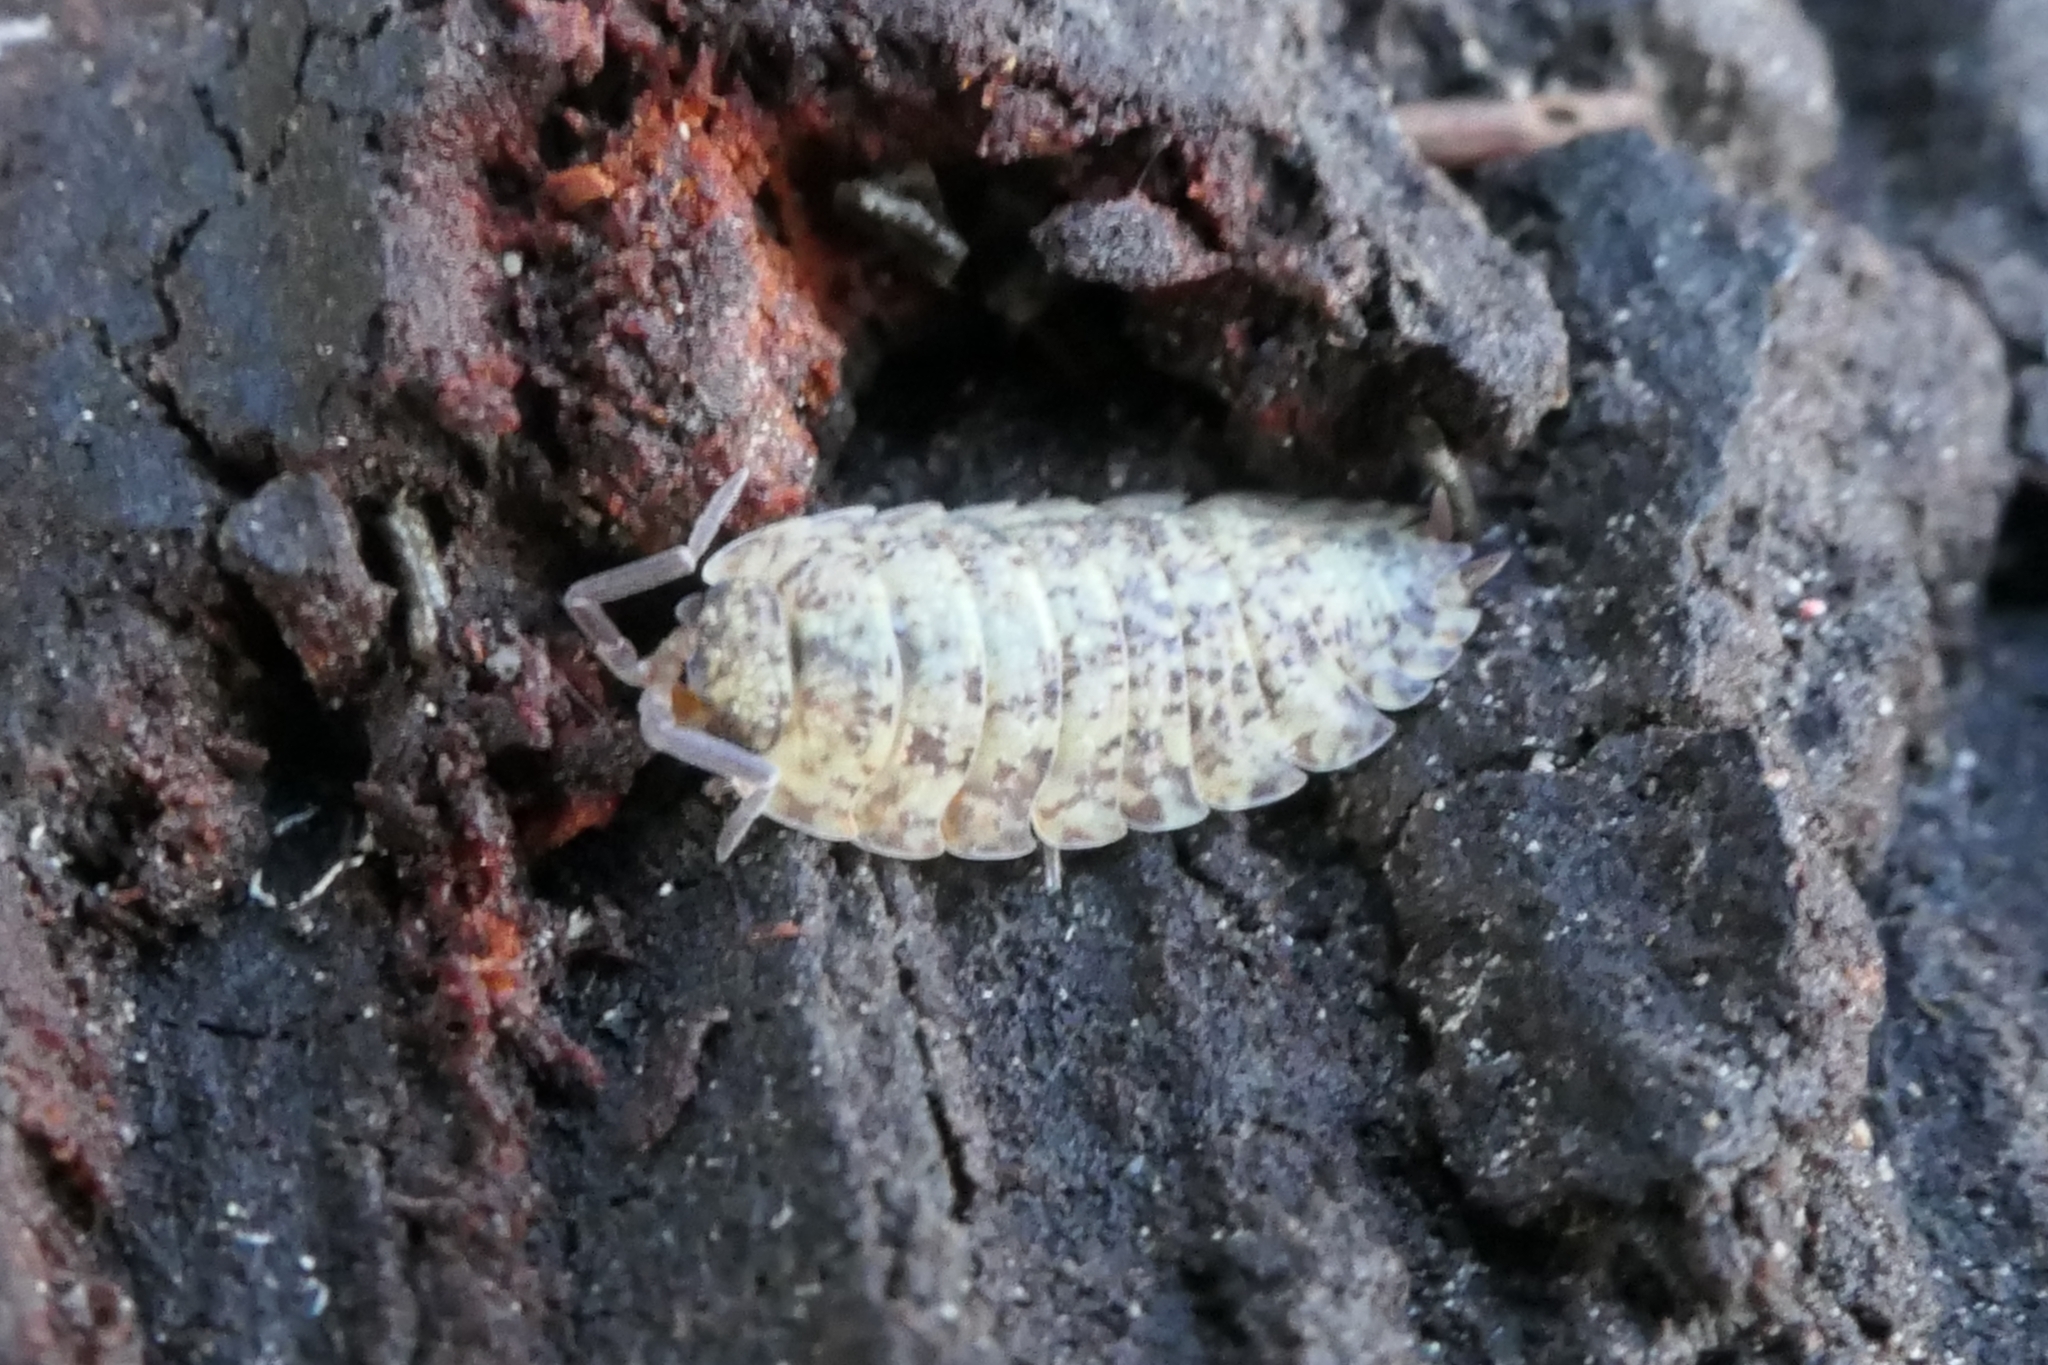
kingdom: Animalia
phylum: Arthropoda
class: Malacostraca
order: Isopoda
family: Porcellionidae
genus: Porcellio
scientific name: Porcellio scaber
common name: Common rough woodlouse
